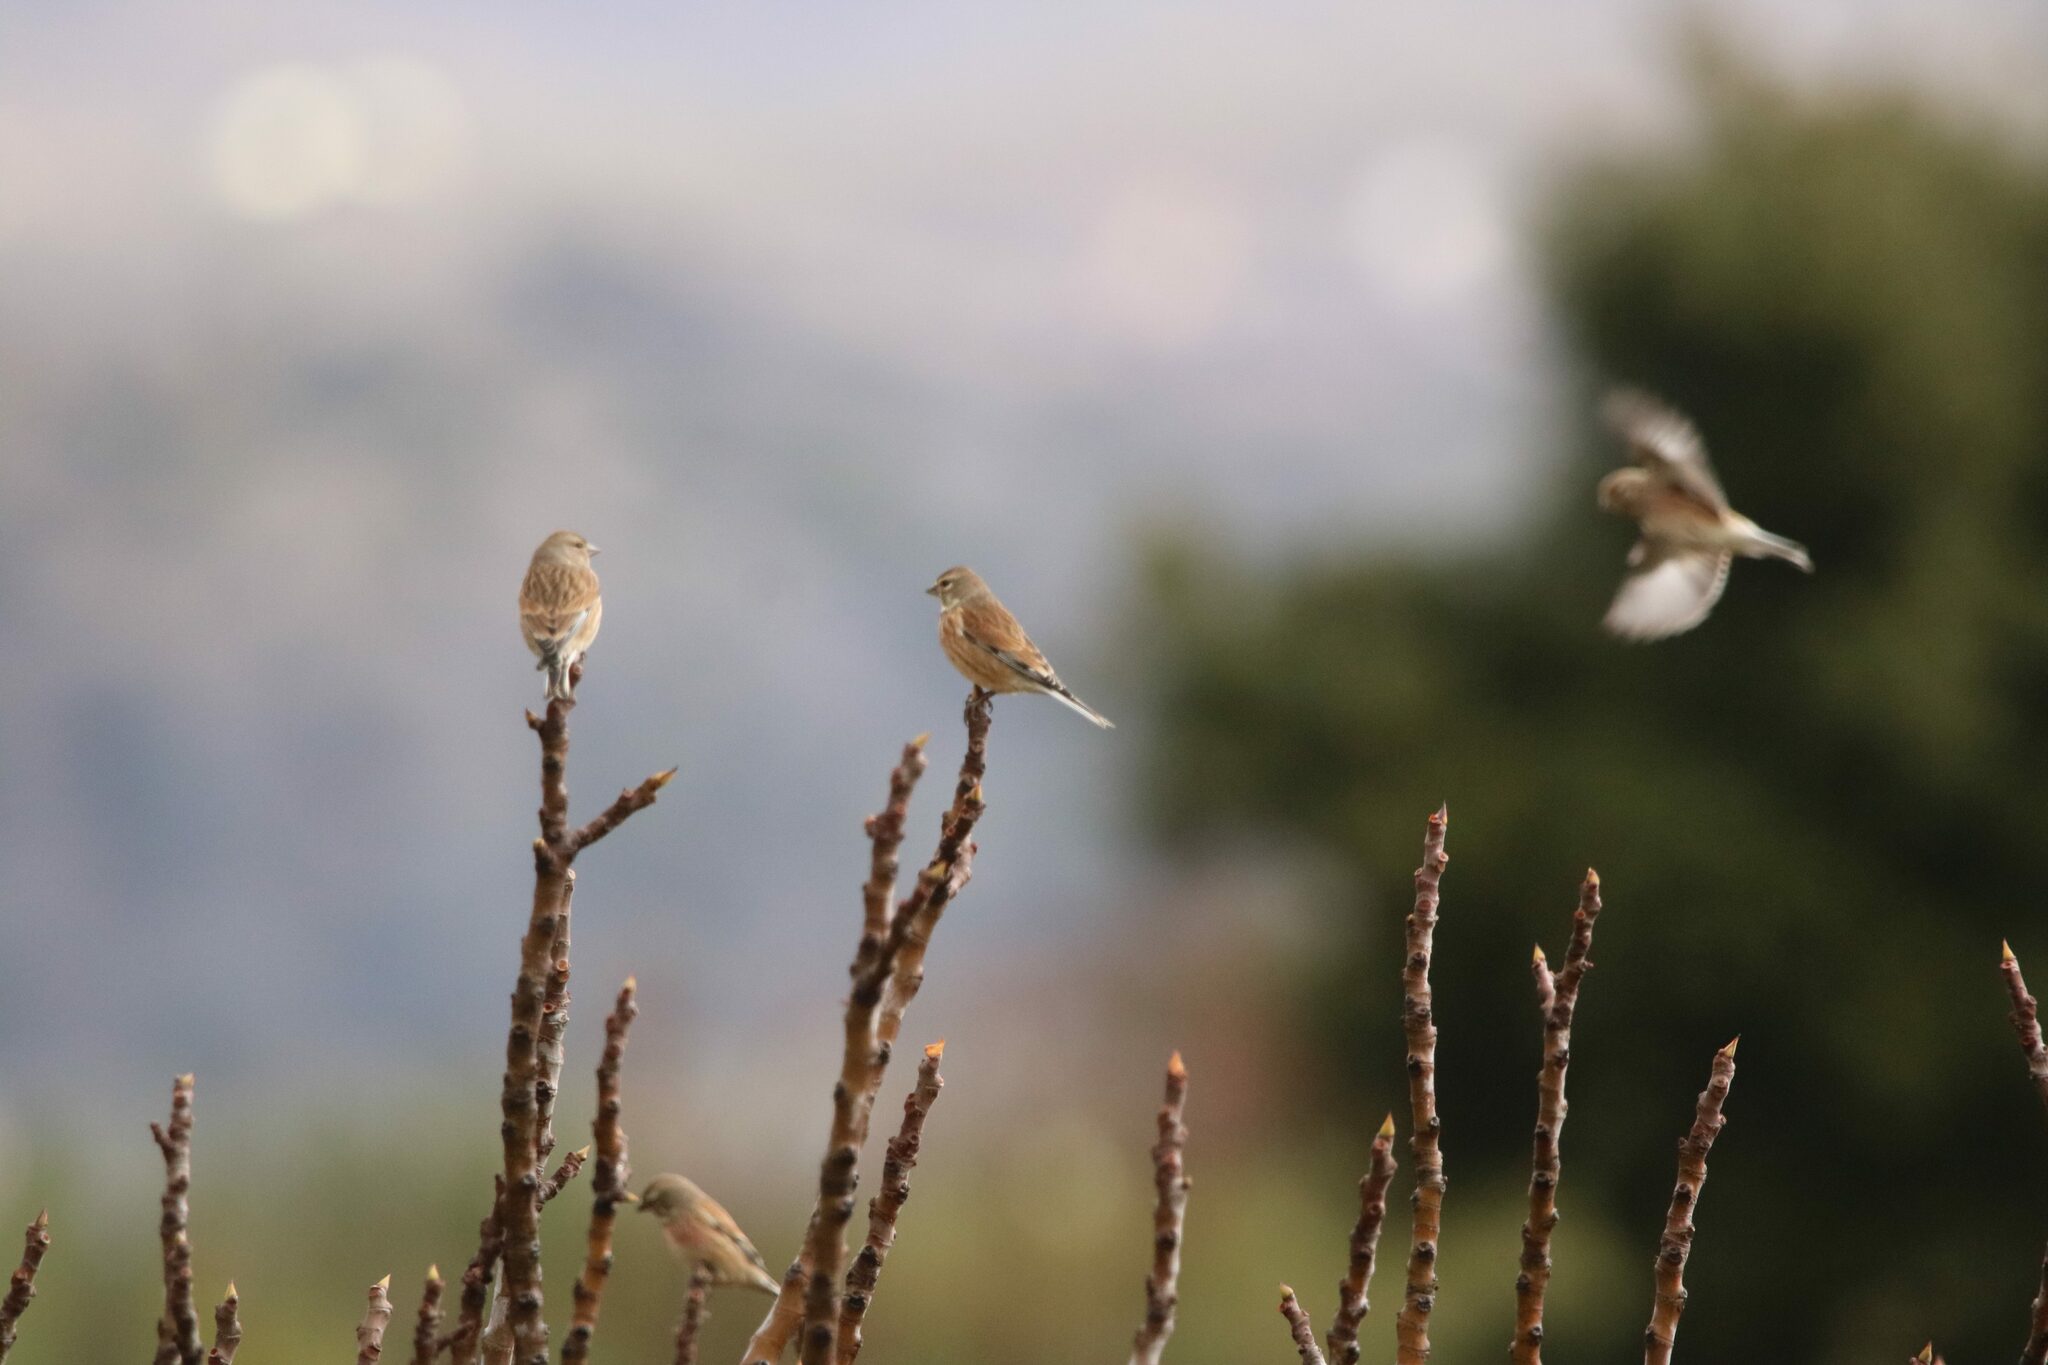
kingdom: Animalia
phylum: Chordata
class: Aves
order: Passeriformes
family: Fringillidae
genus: Linaria
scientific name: Linaria cannabina
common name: Common linnet
